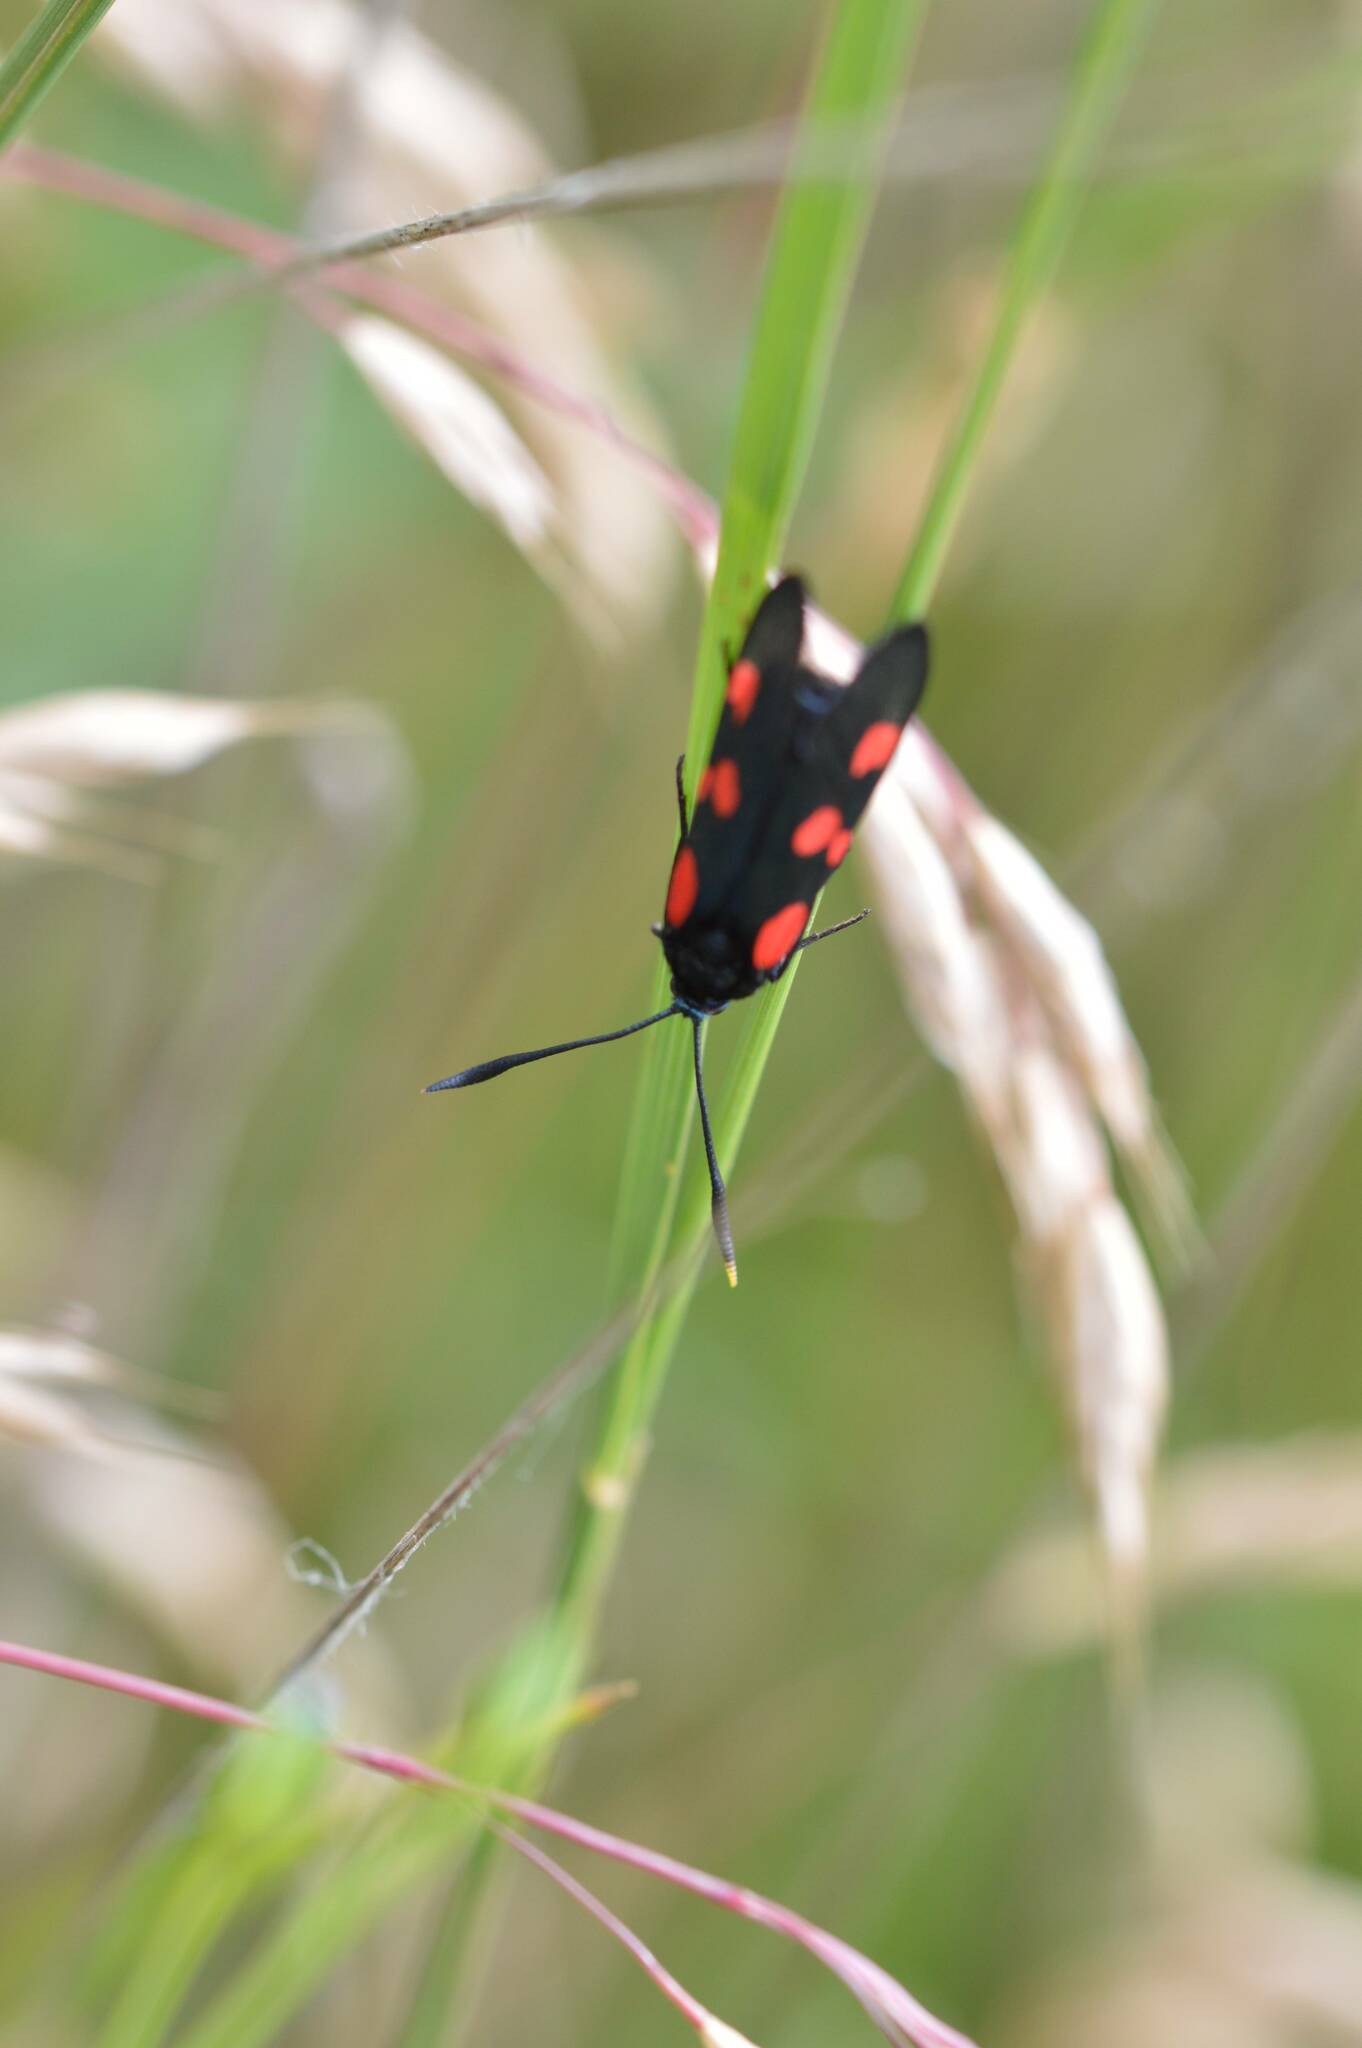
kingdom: Animalia
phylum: Arthropoda
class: Insecta
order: Lepidoptera
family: Zygaenidae
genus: Zygaena
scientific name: Zygaena trifolii
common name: Five-spot burnet
